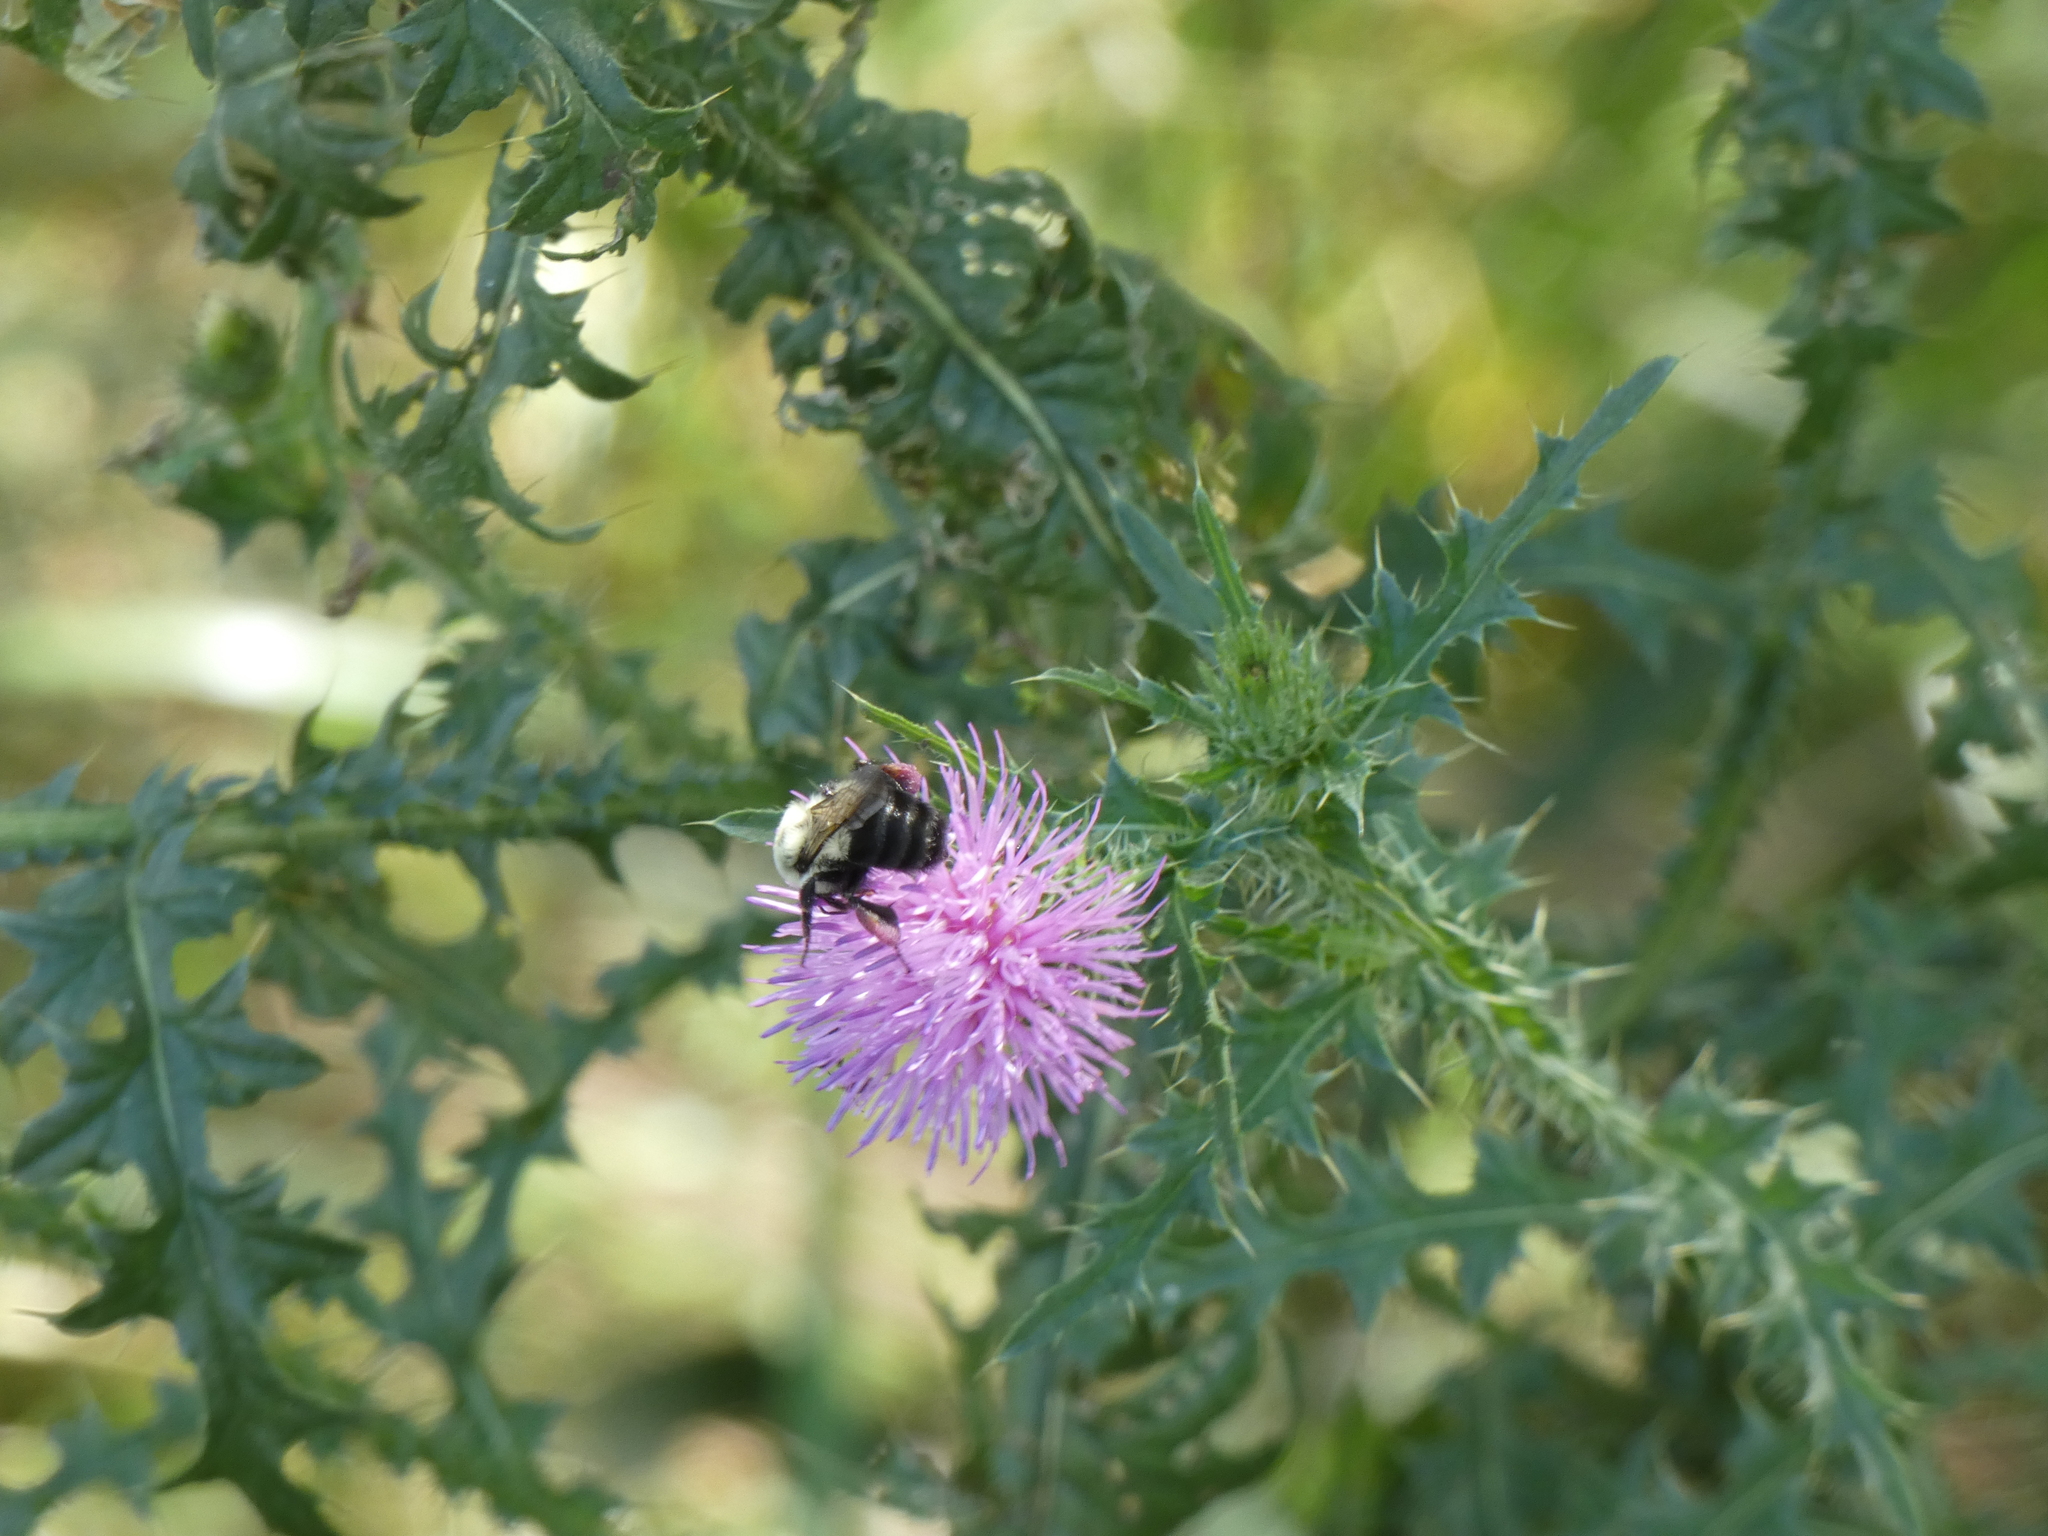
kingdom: Animalia
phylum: Arthropoda
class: Insecta
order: Hymenoptera
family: Apidae
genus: Bombus
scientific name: Bombus impatiens
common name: Common eastern bumble bee
